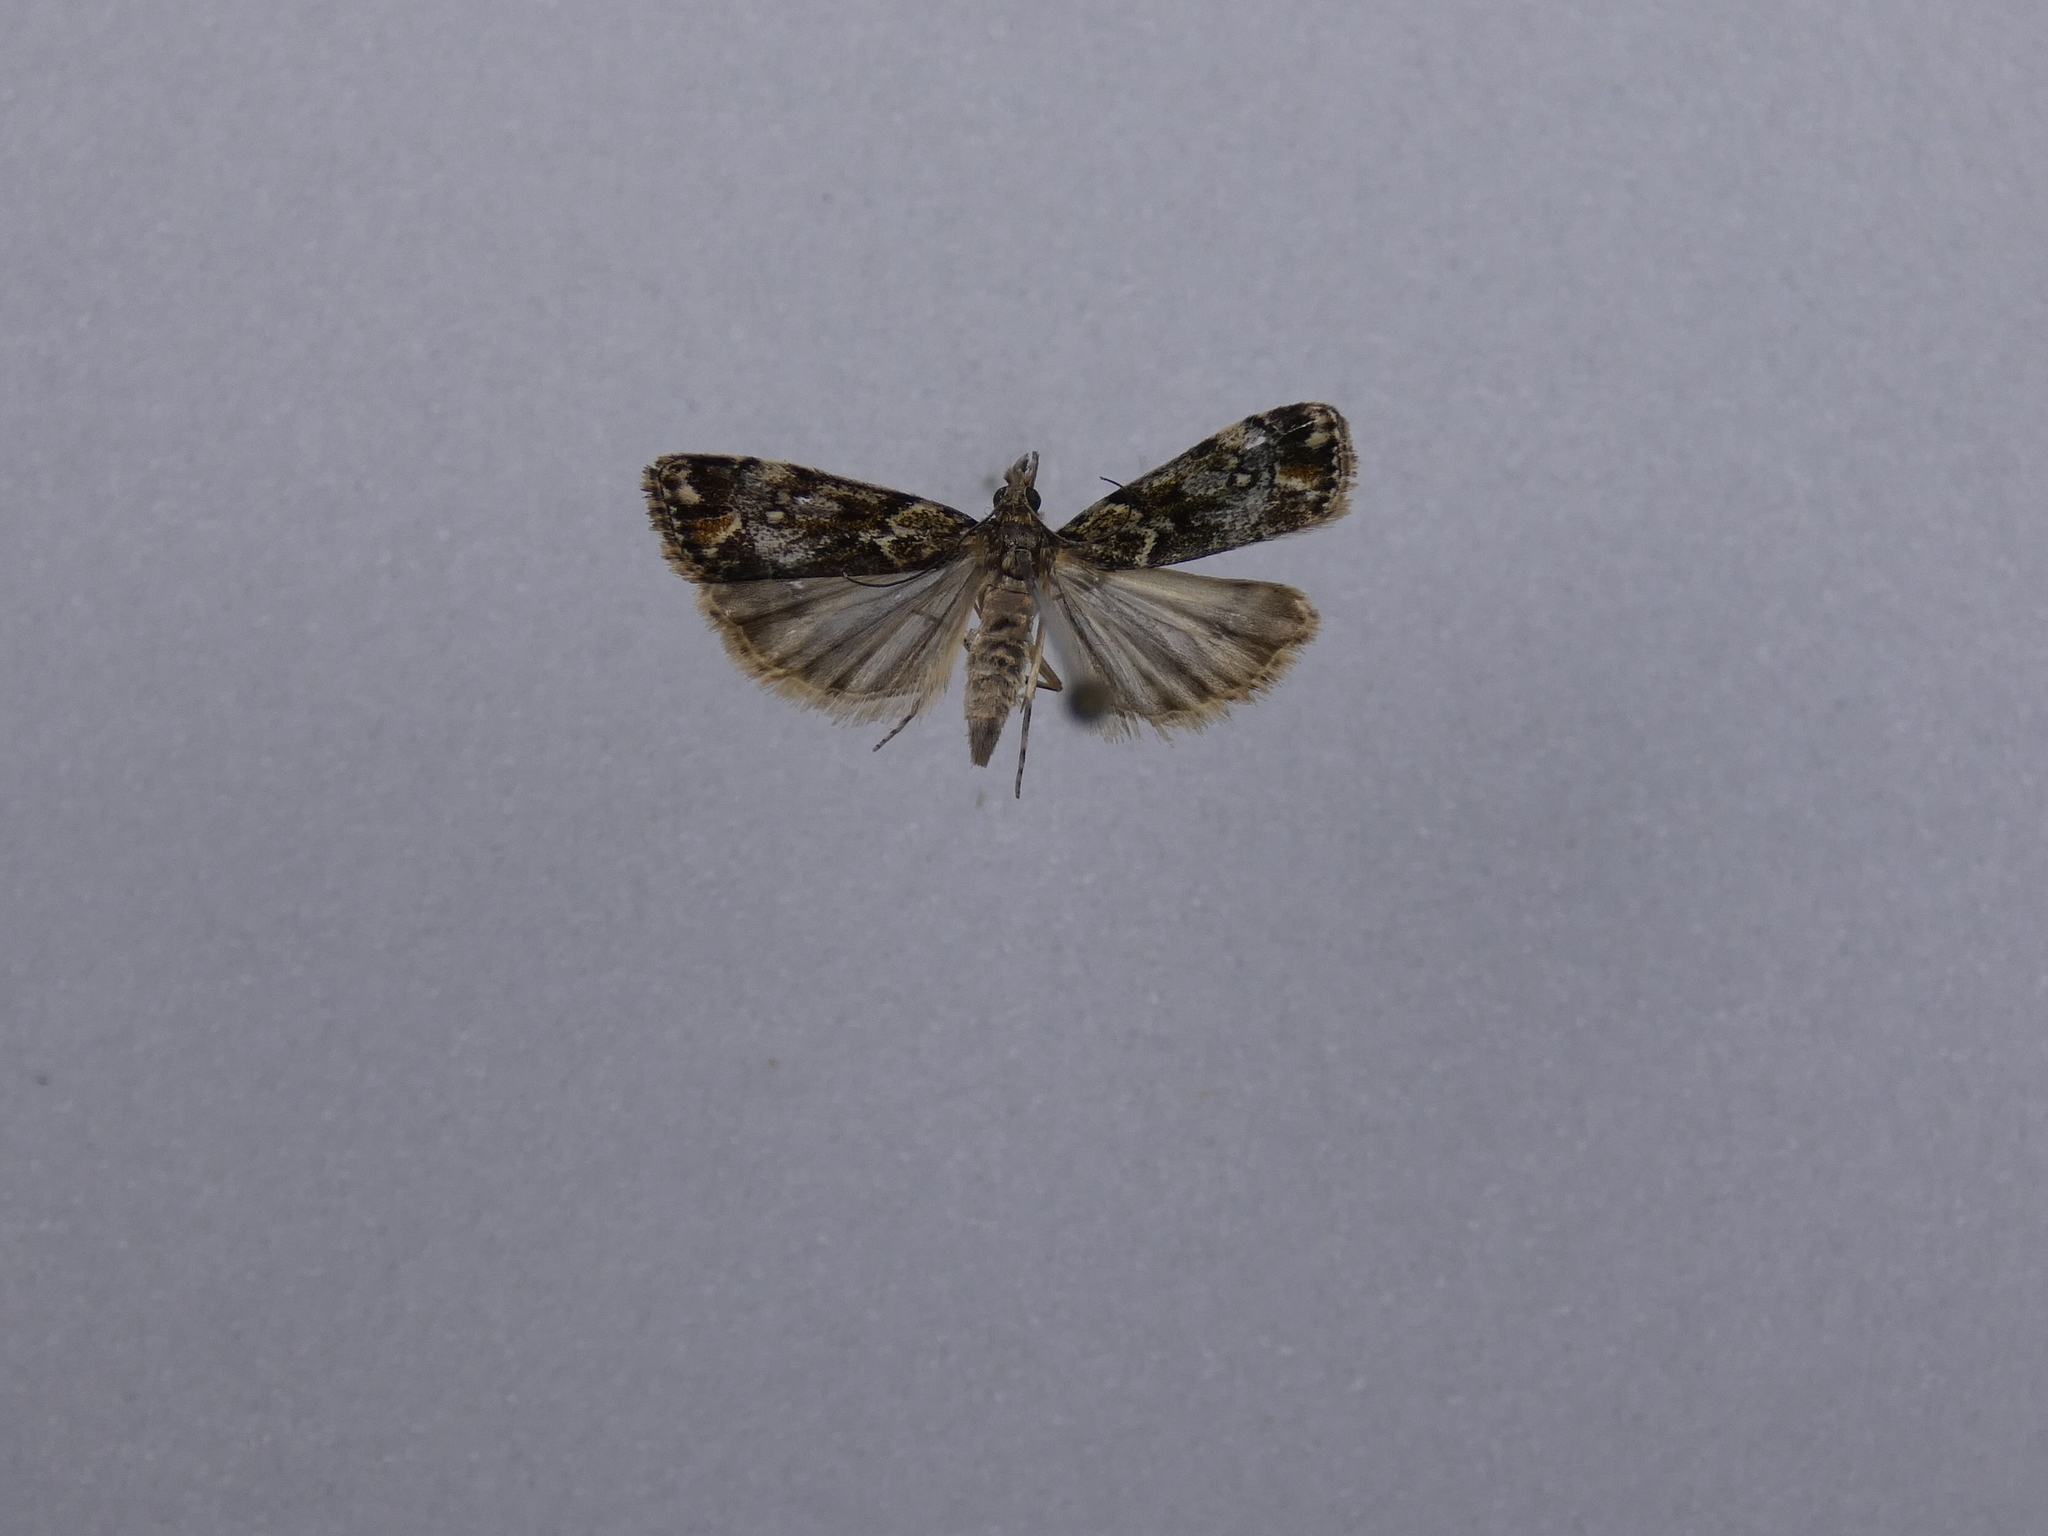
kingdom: Animalia
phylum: Arthropoda
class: Insecta
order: Lepidoptera
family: Crambidae
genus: Eudonia
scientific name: Eudonia minualis
